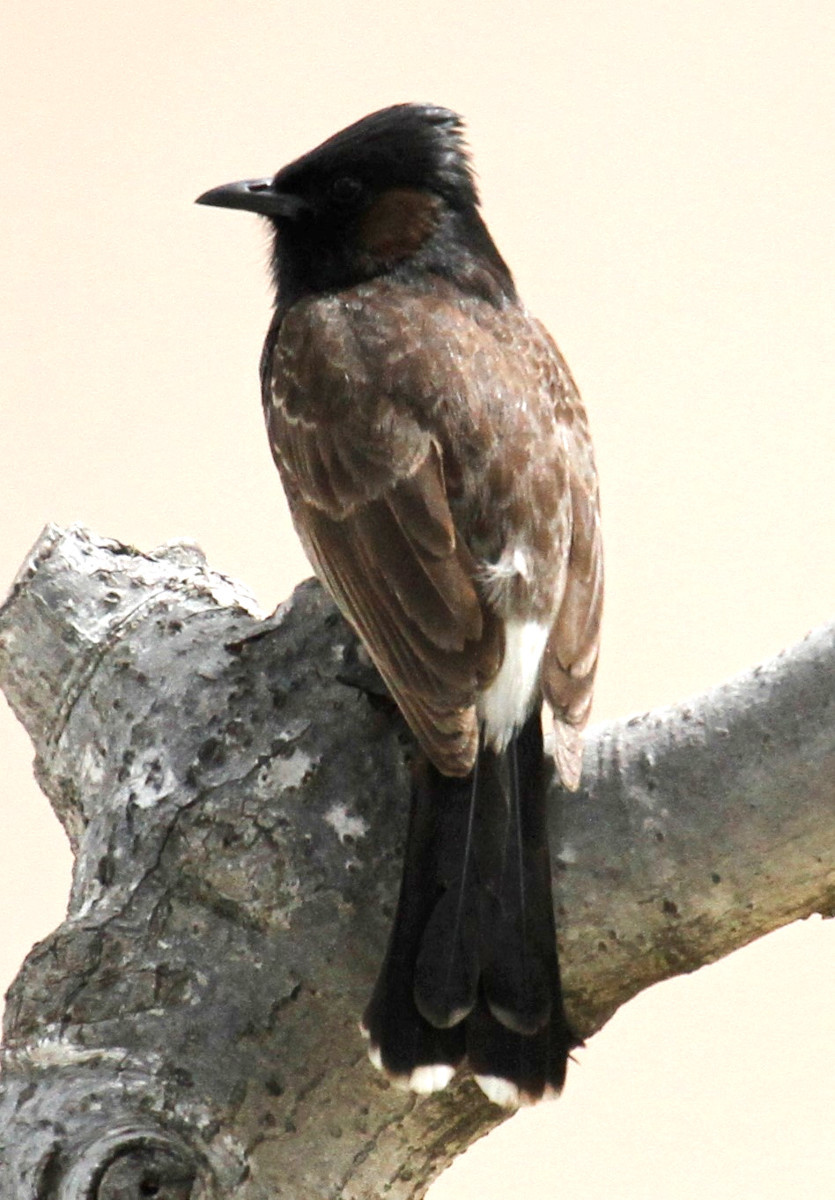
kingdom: Animalia
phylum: Chordata
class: Aves
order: Passeriformes
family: Pycnonotidae
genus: Pycnonotus
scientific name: Pycnonotus cafer
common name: Red-vented bulbul
